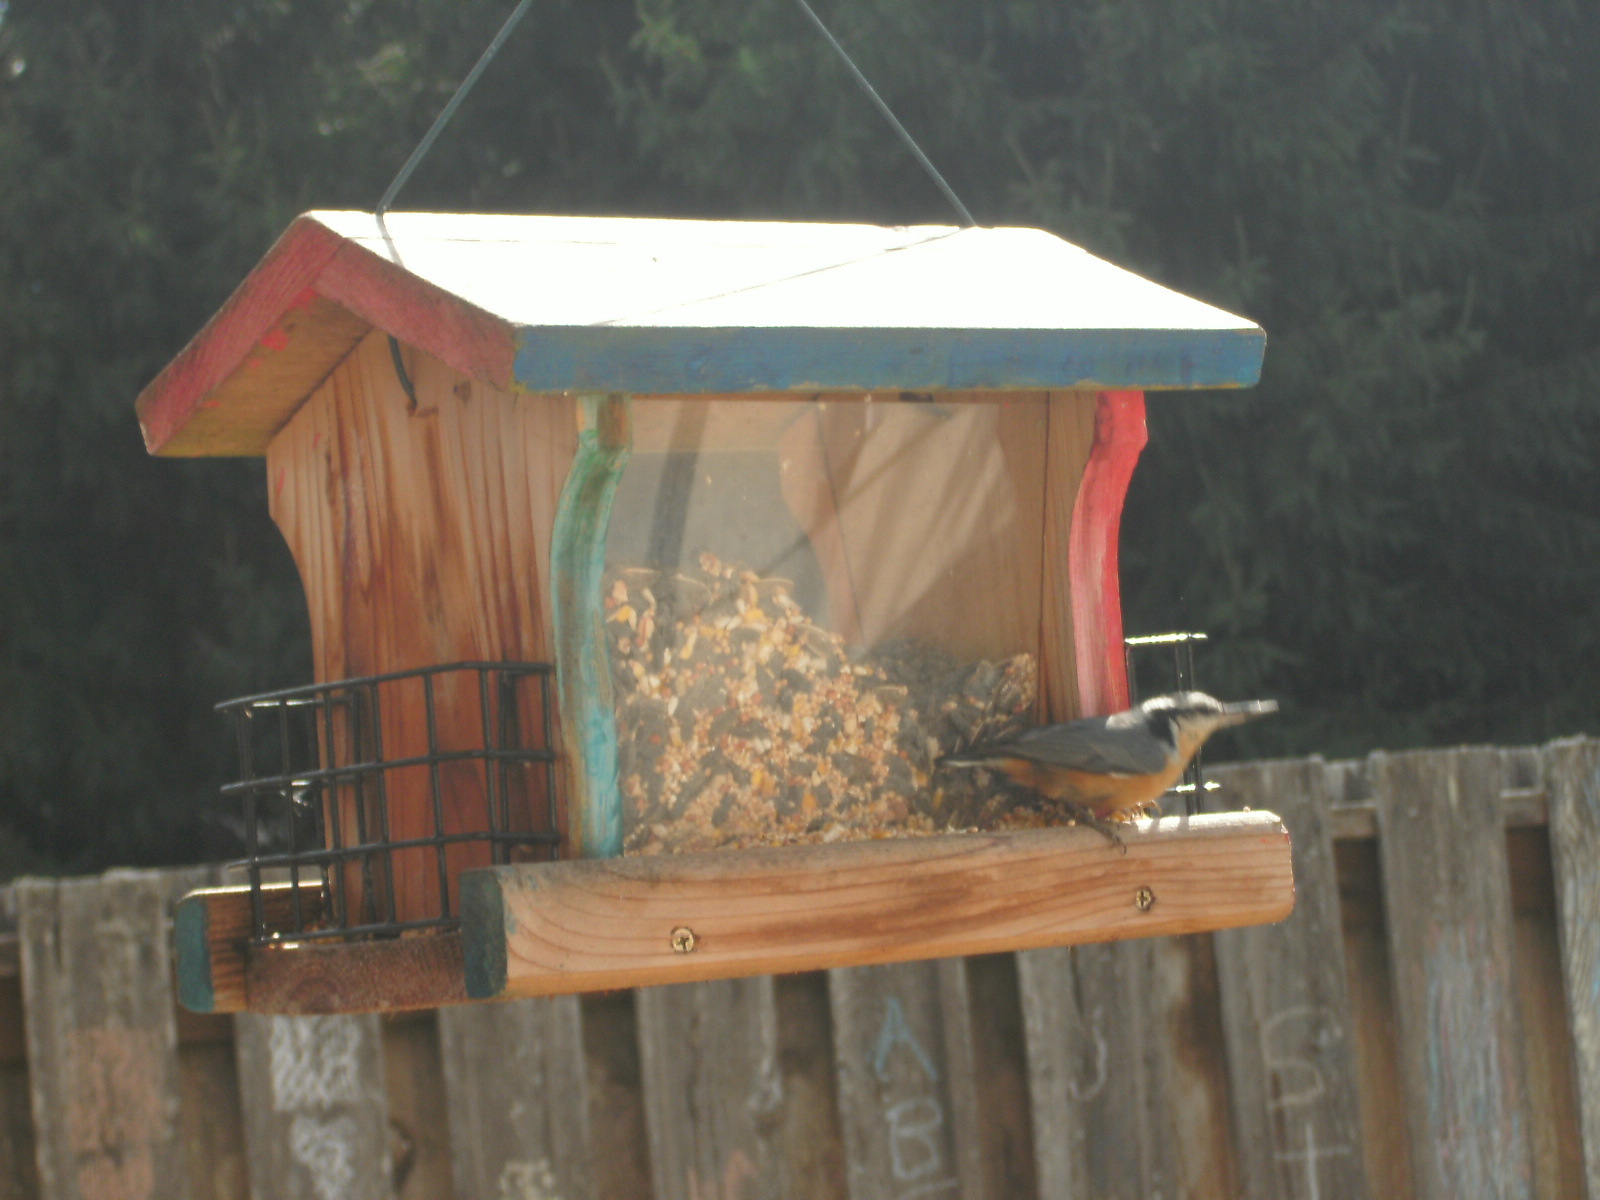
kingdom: Animalia
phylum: Chordata
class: Aves
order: Passeriformes
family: Sittidae
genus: Sitta
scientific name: Sitta canadensis
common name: Red-breasted nuthatch
